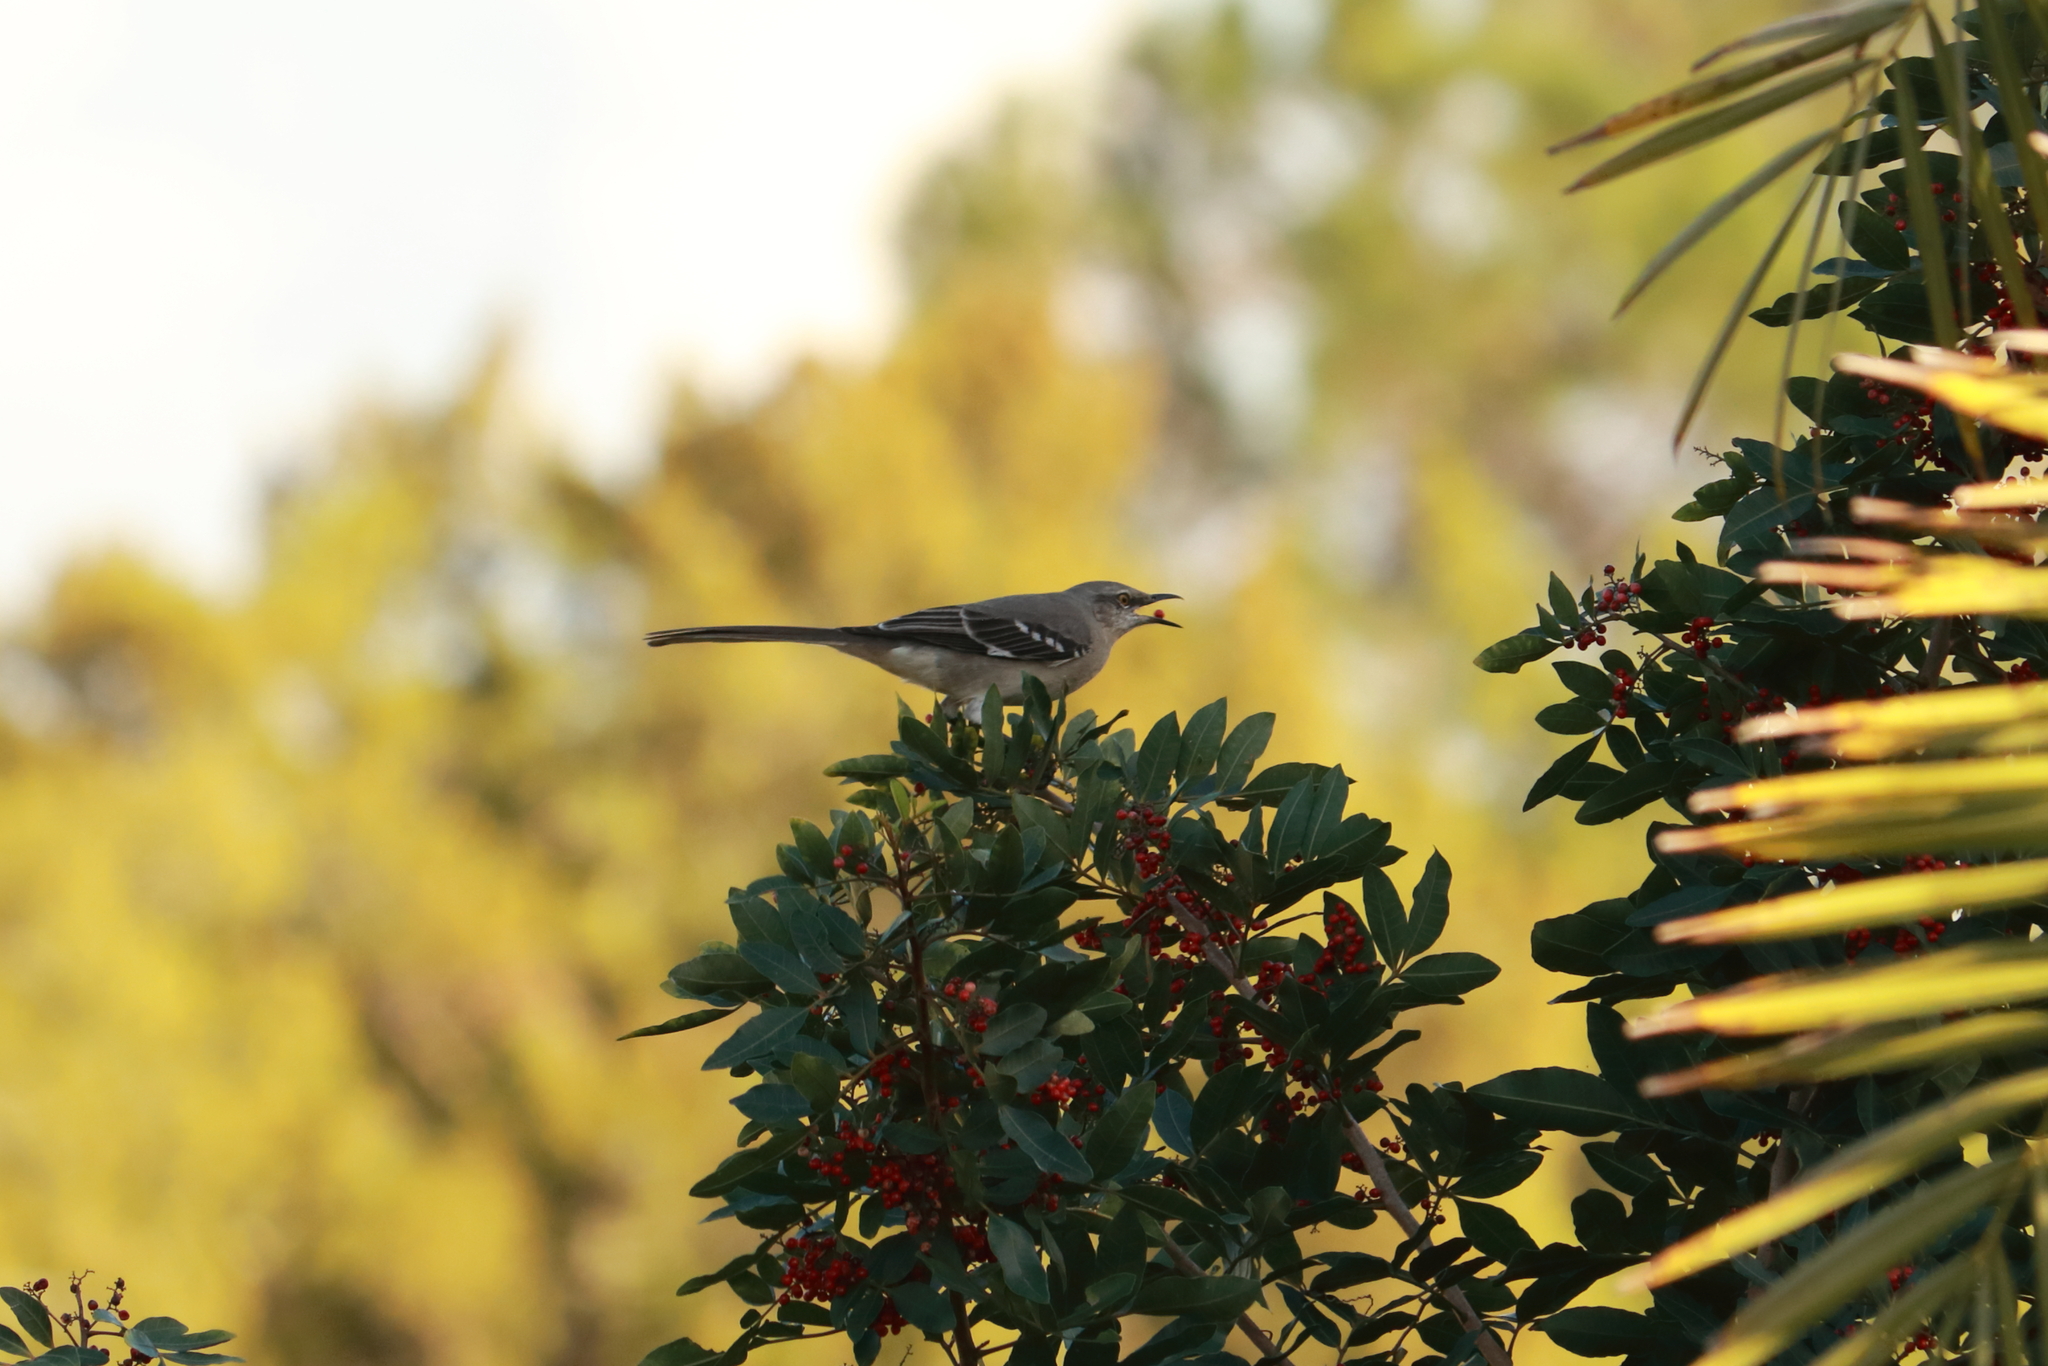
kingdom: Animalia
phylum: Chordata
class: Aves
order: Passeriformes
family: Mimidae
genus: Mimus
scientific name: Mimus polyglottos
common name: Northern mockingbird
